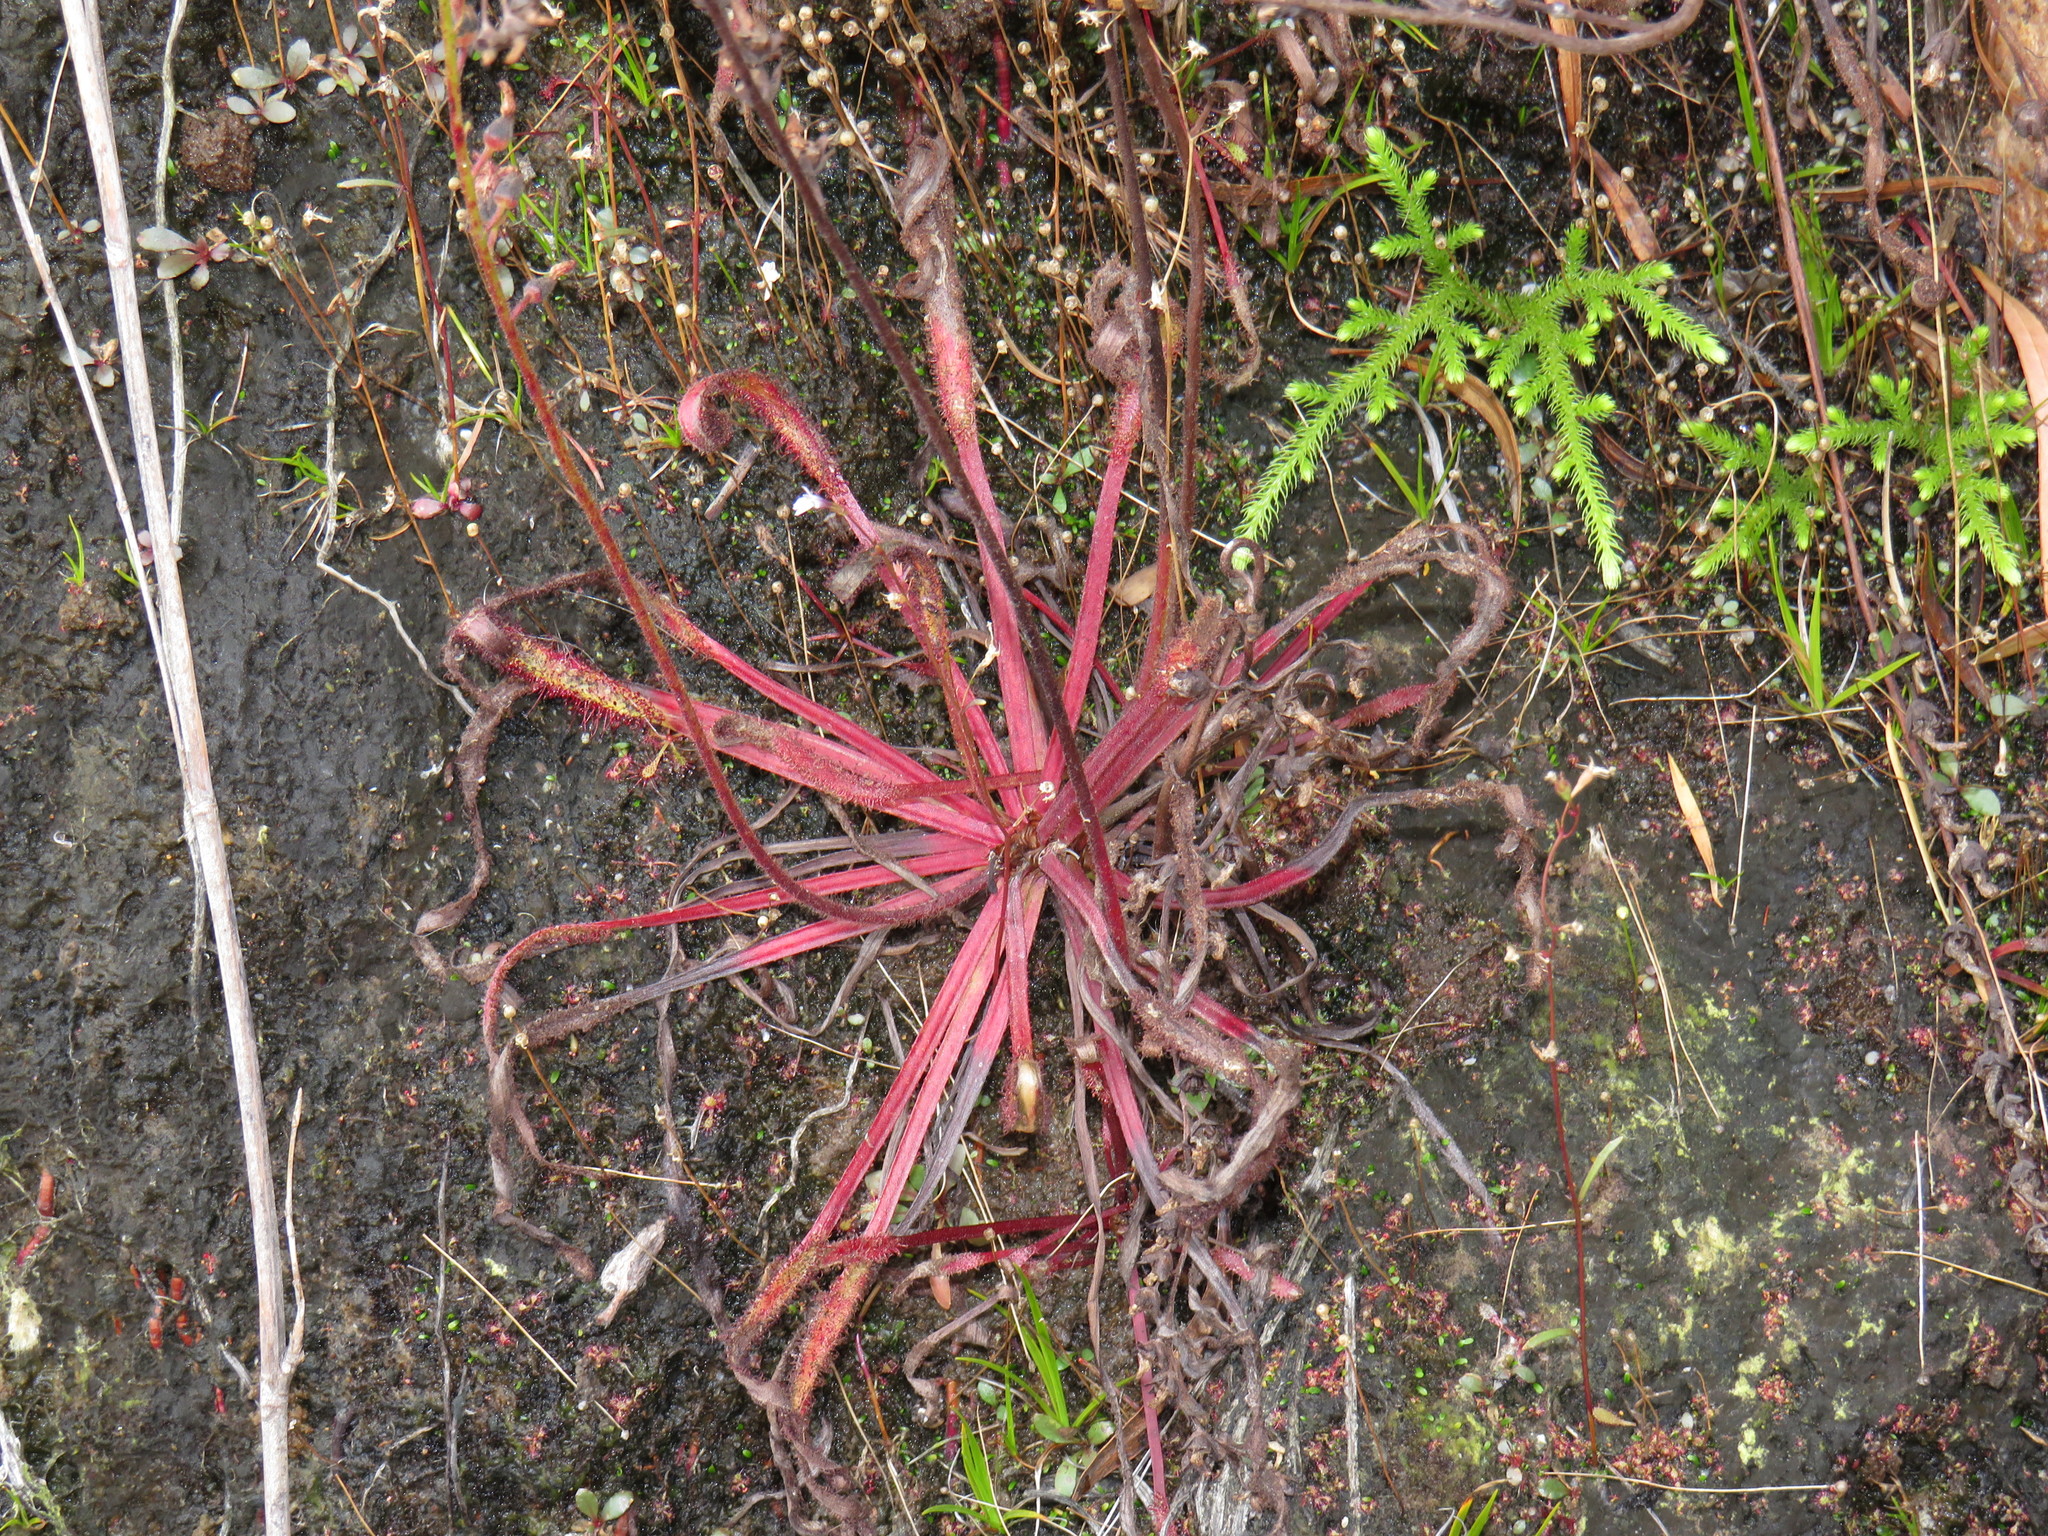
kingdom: Plantae
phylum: Tracheophyta
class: Magnoliopsida
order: Caryophyllales
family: Droseraceae
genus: Drosera
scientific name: Drosera capensis
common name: Cape sundew
